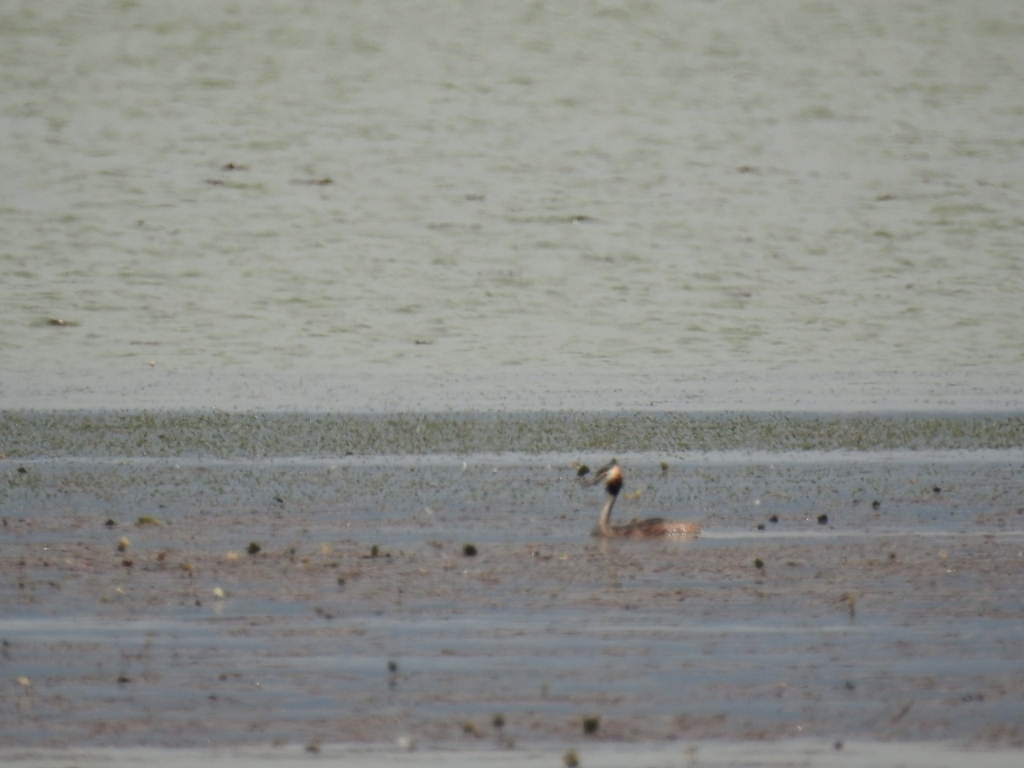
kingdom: Animalia
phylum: Chordata
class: Aves
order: Podicipediformes
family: Podicipedidae
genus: Podiceps
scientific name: Podiceps cristatus
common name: Great crested grebe
